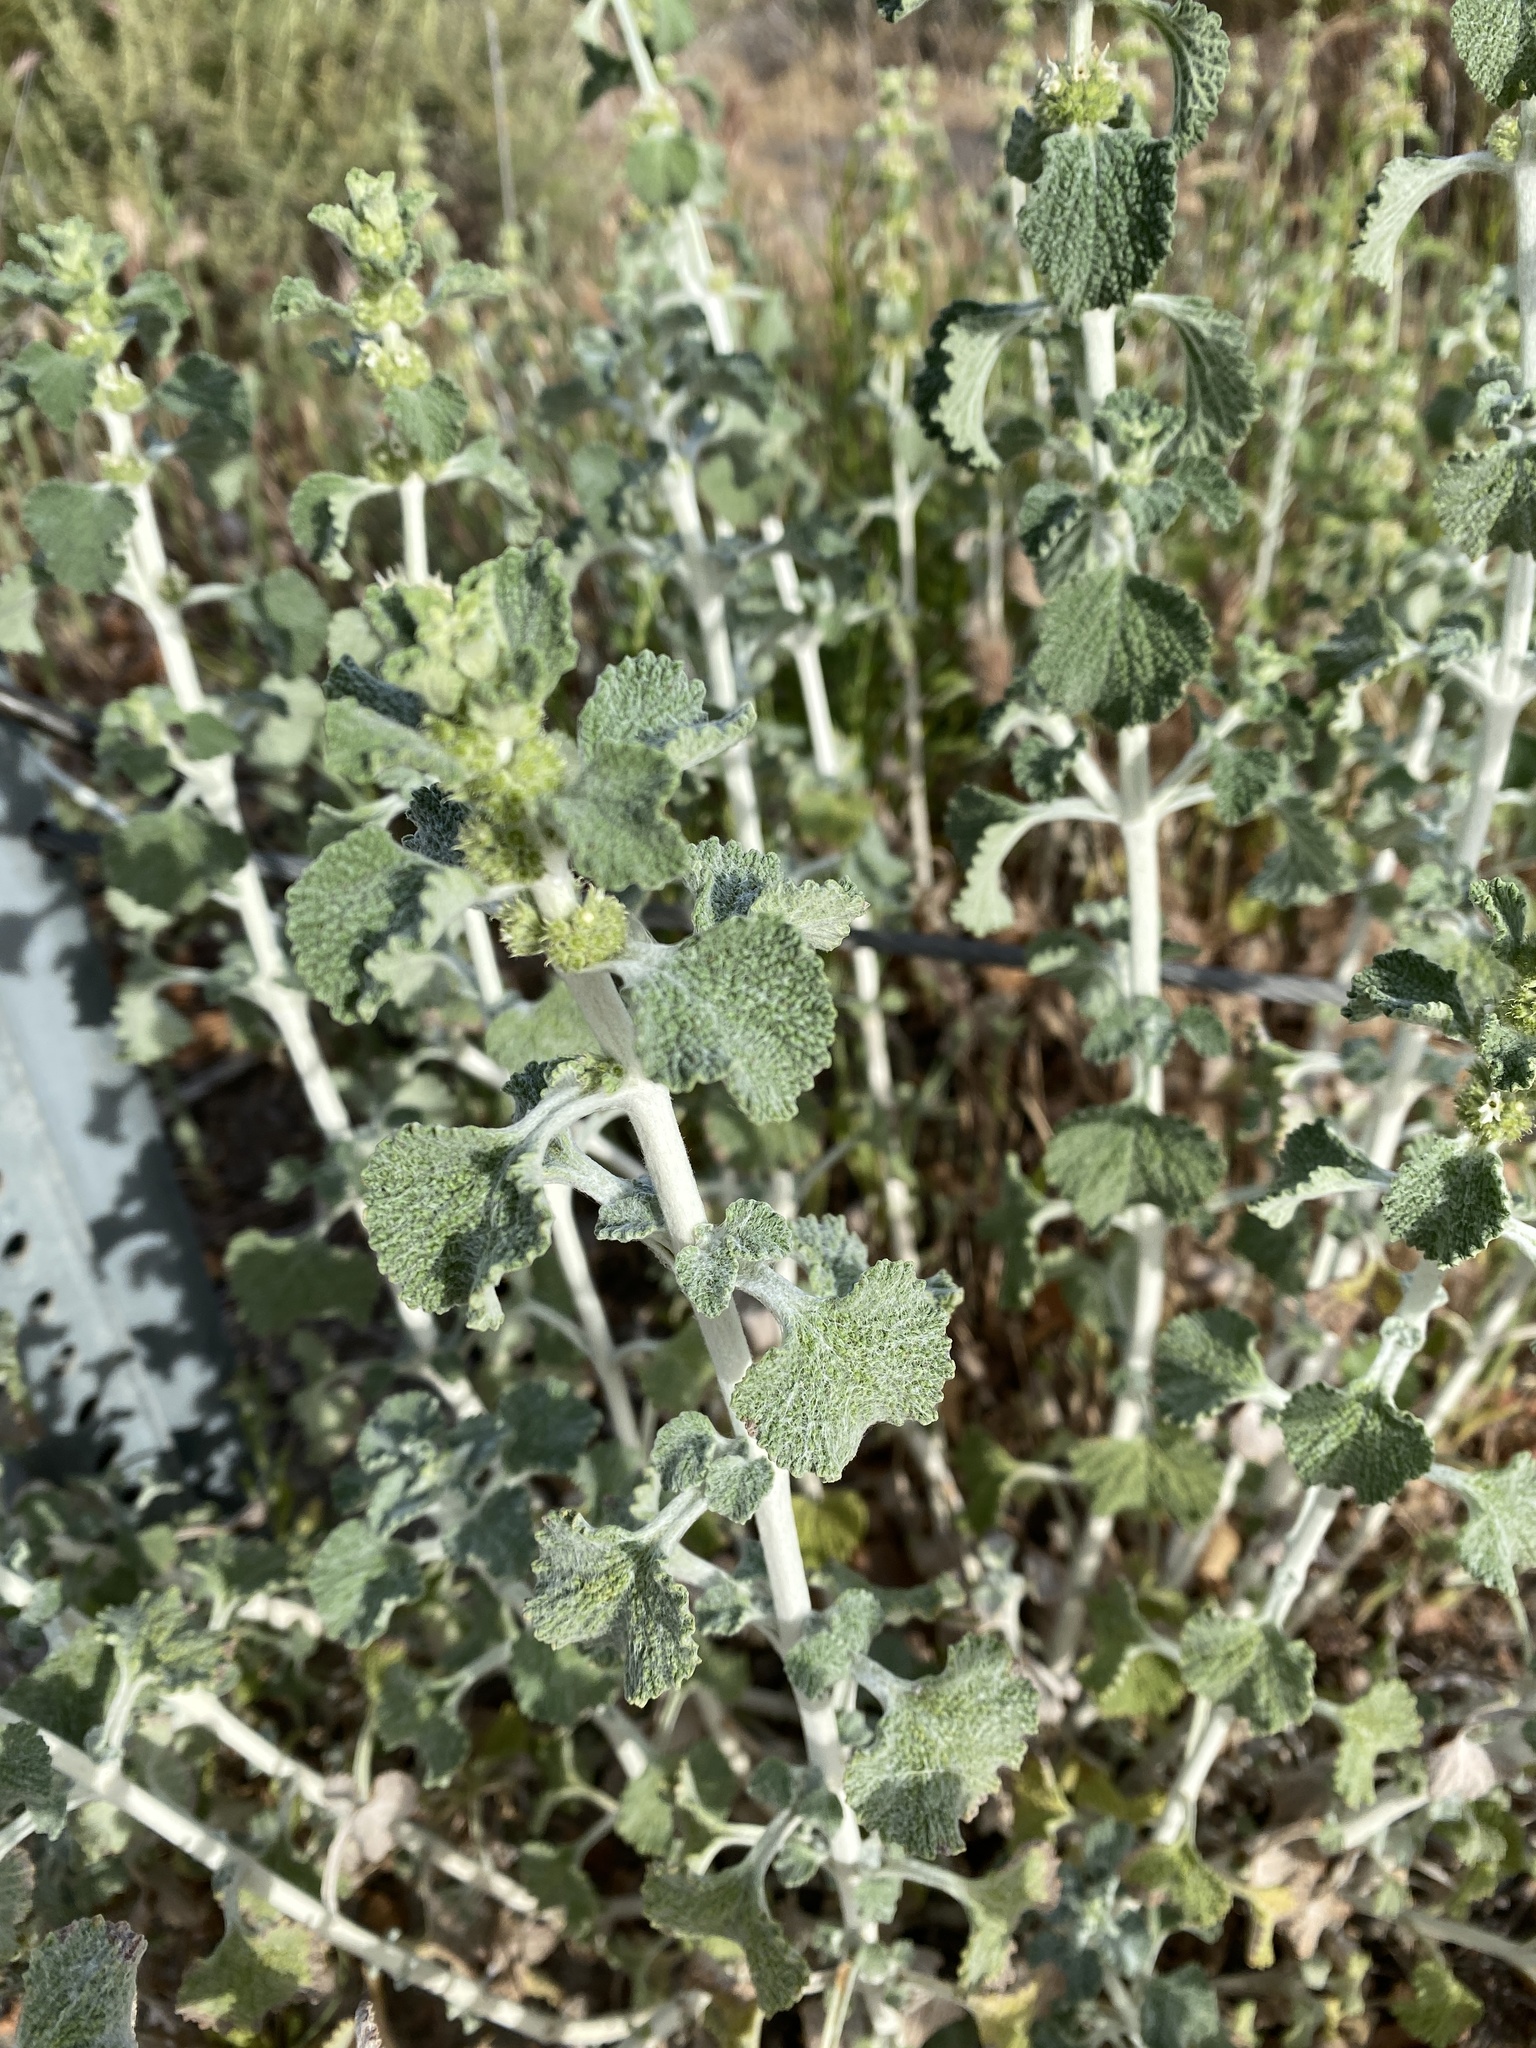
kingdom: Plantae
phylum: Tracheophyta
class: Magnoliopsida
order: Lamiales
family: Lamiaceae
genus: Marrubium
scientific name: Marrubium vulgare
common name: Horehound
